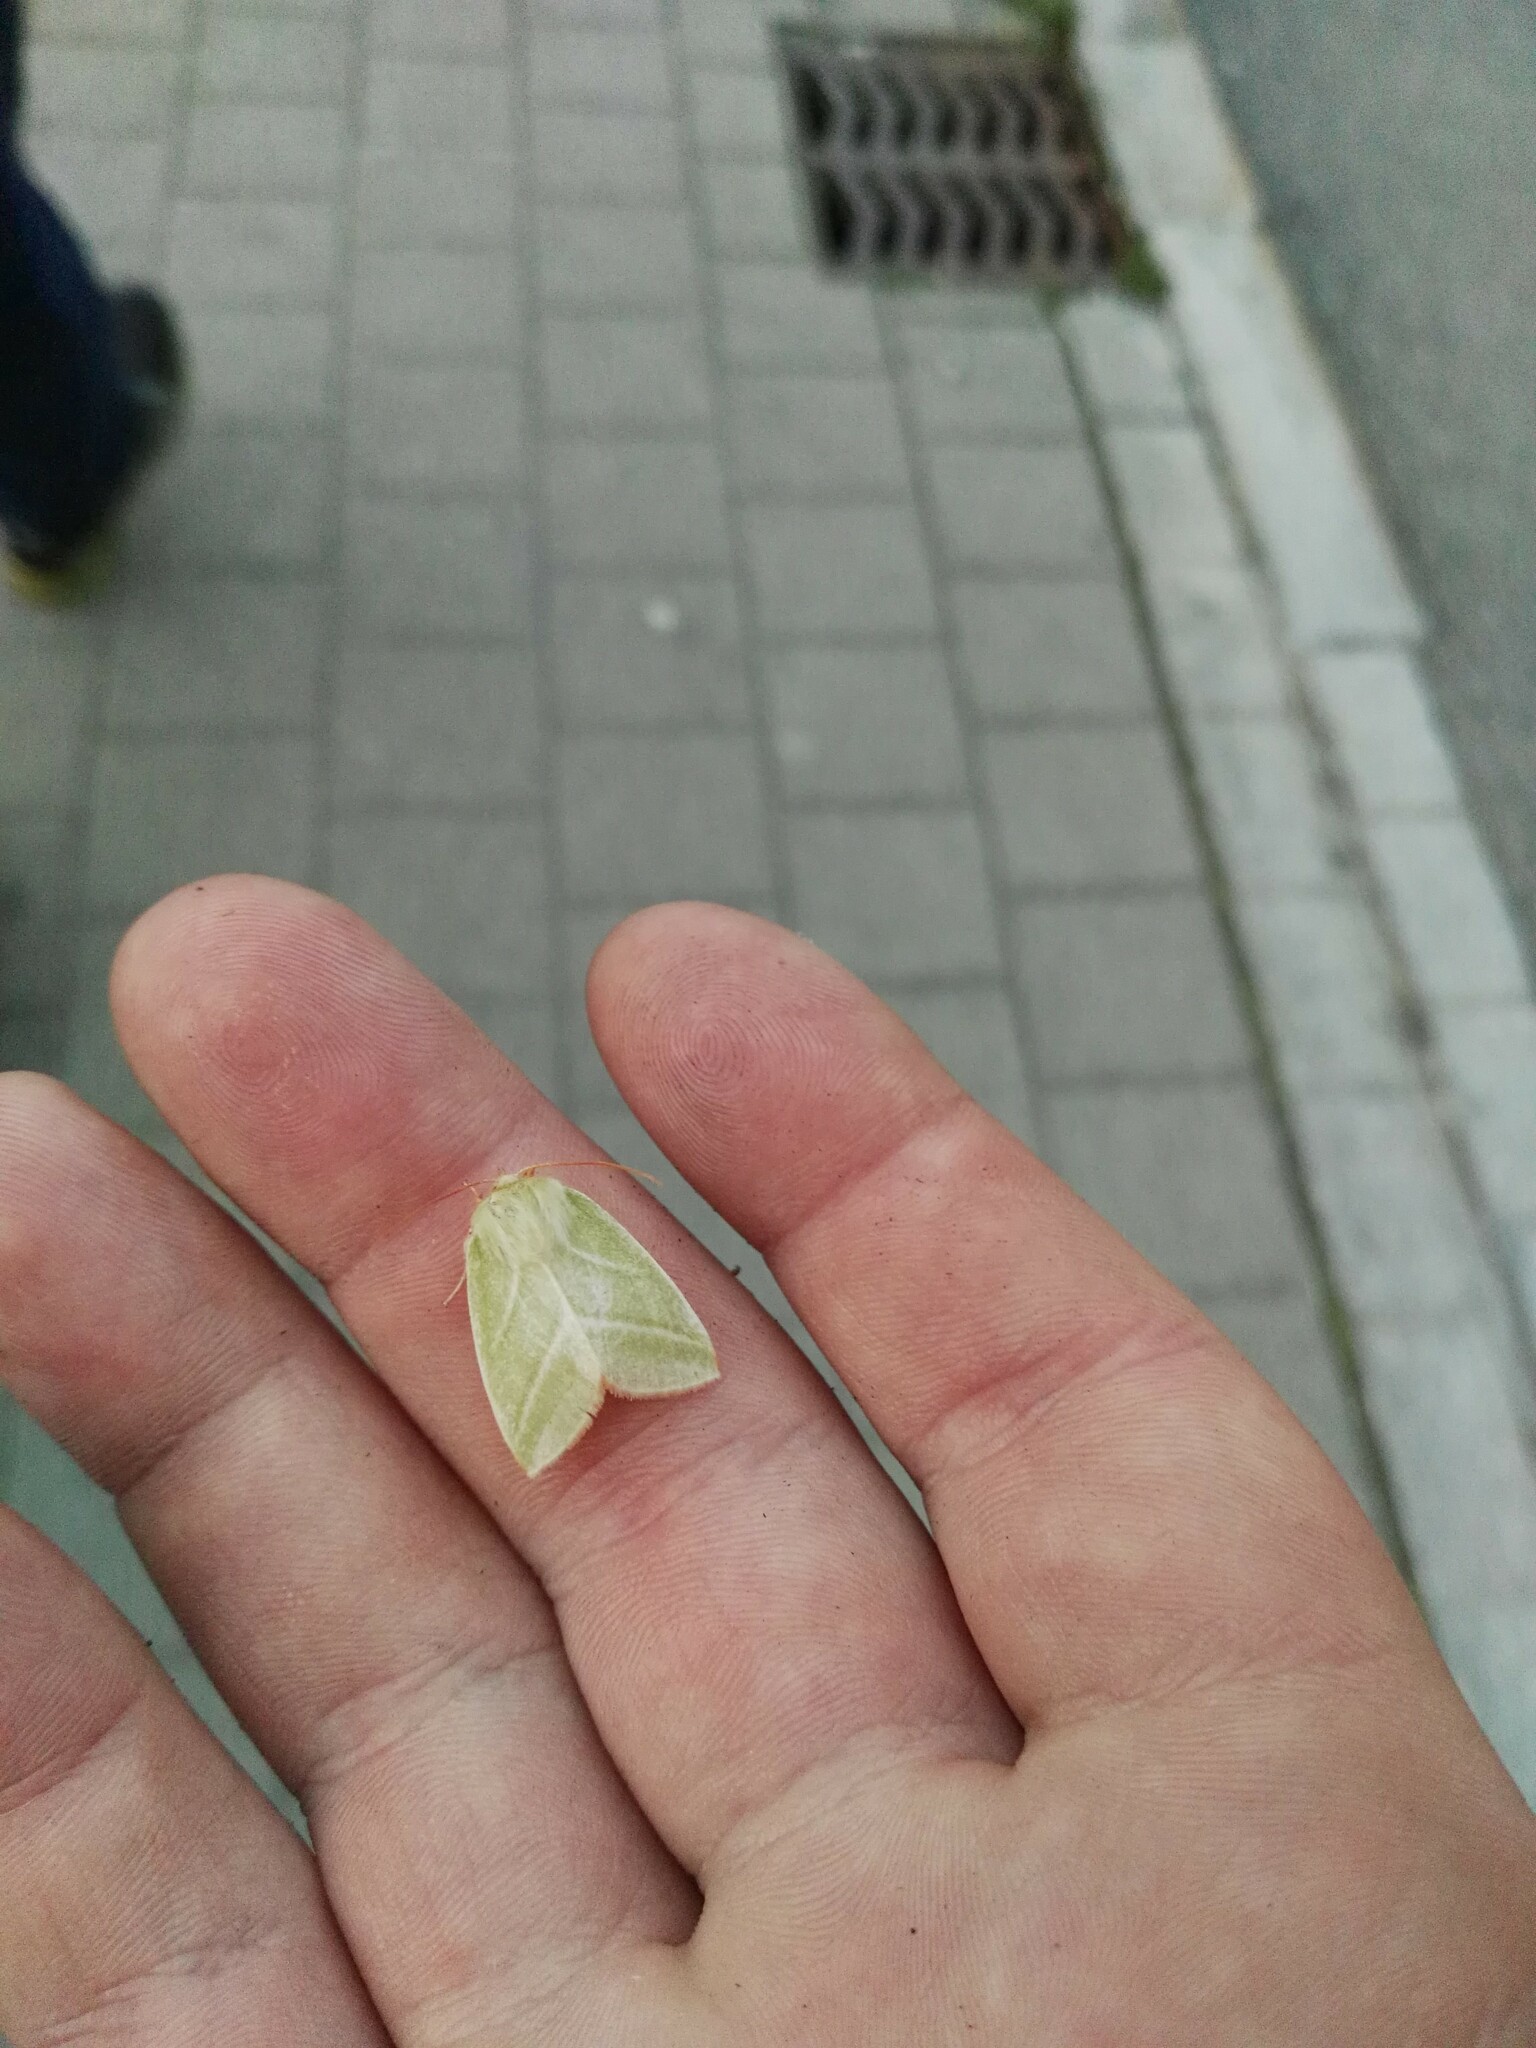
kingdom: Animalia
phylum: Arthropoda
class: Insecta
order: Lepidoptera
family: Nolidae
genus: Pseudoips
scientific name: Pseudoips prasinana
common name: Green silver-lines
